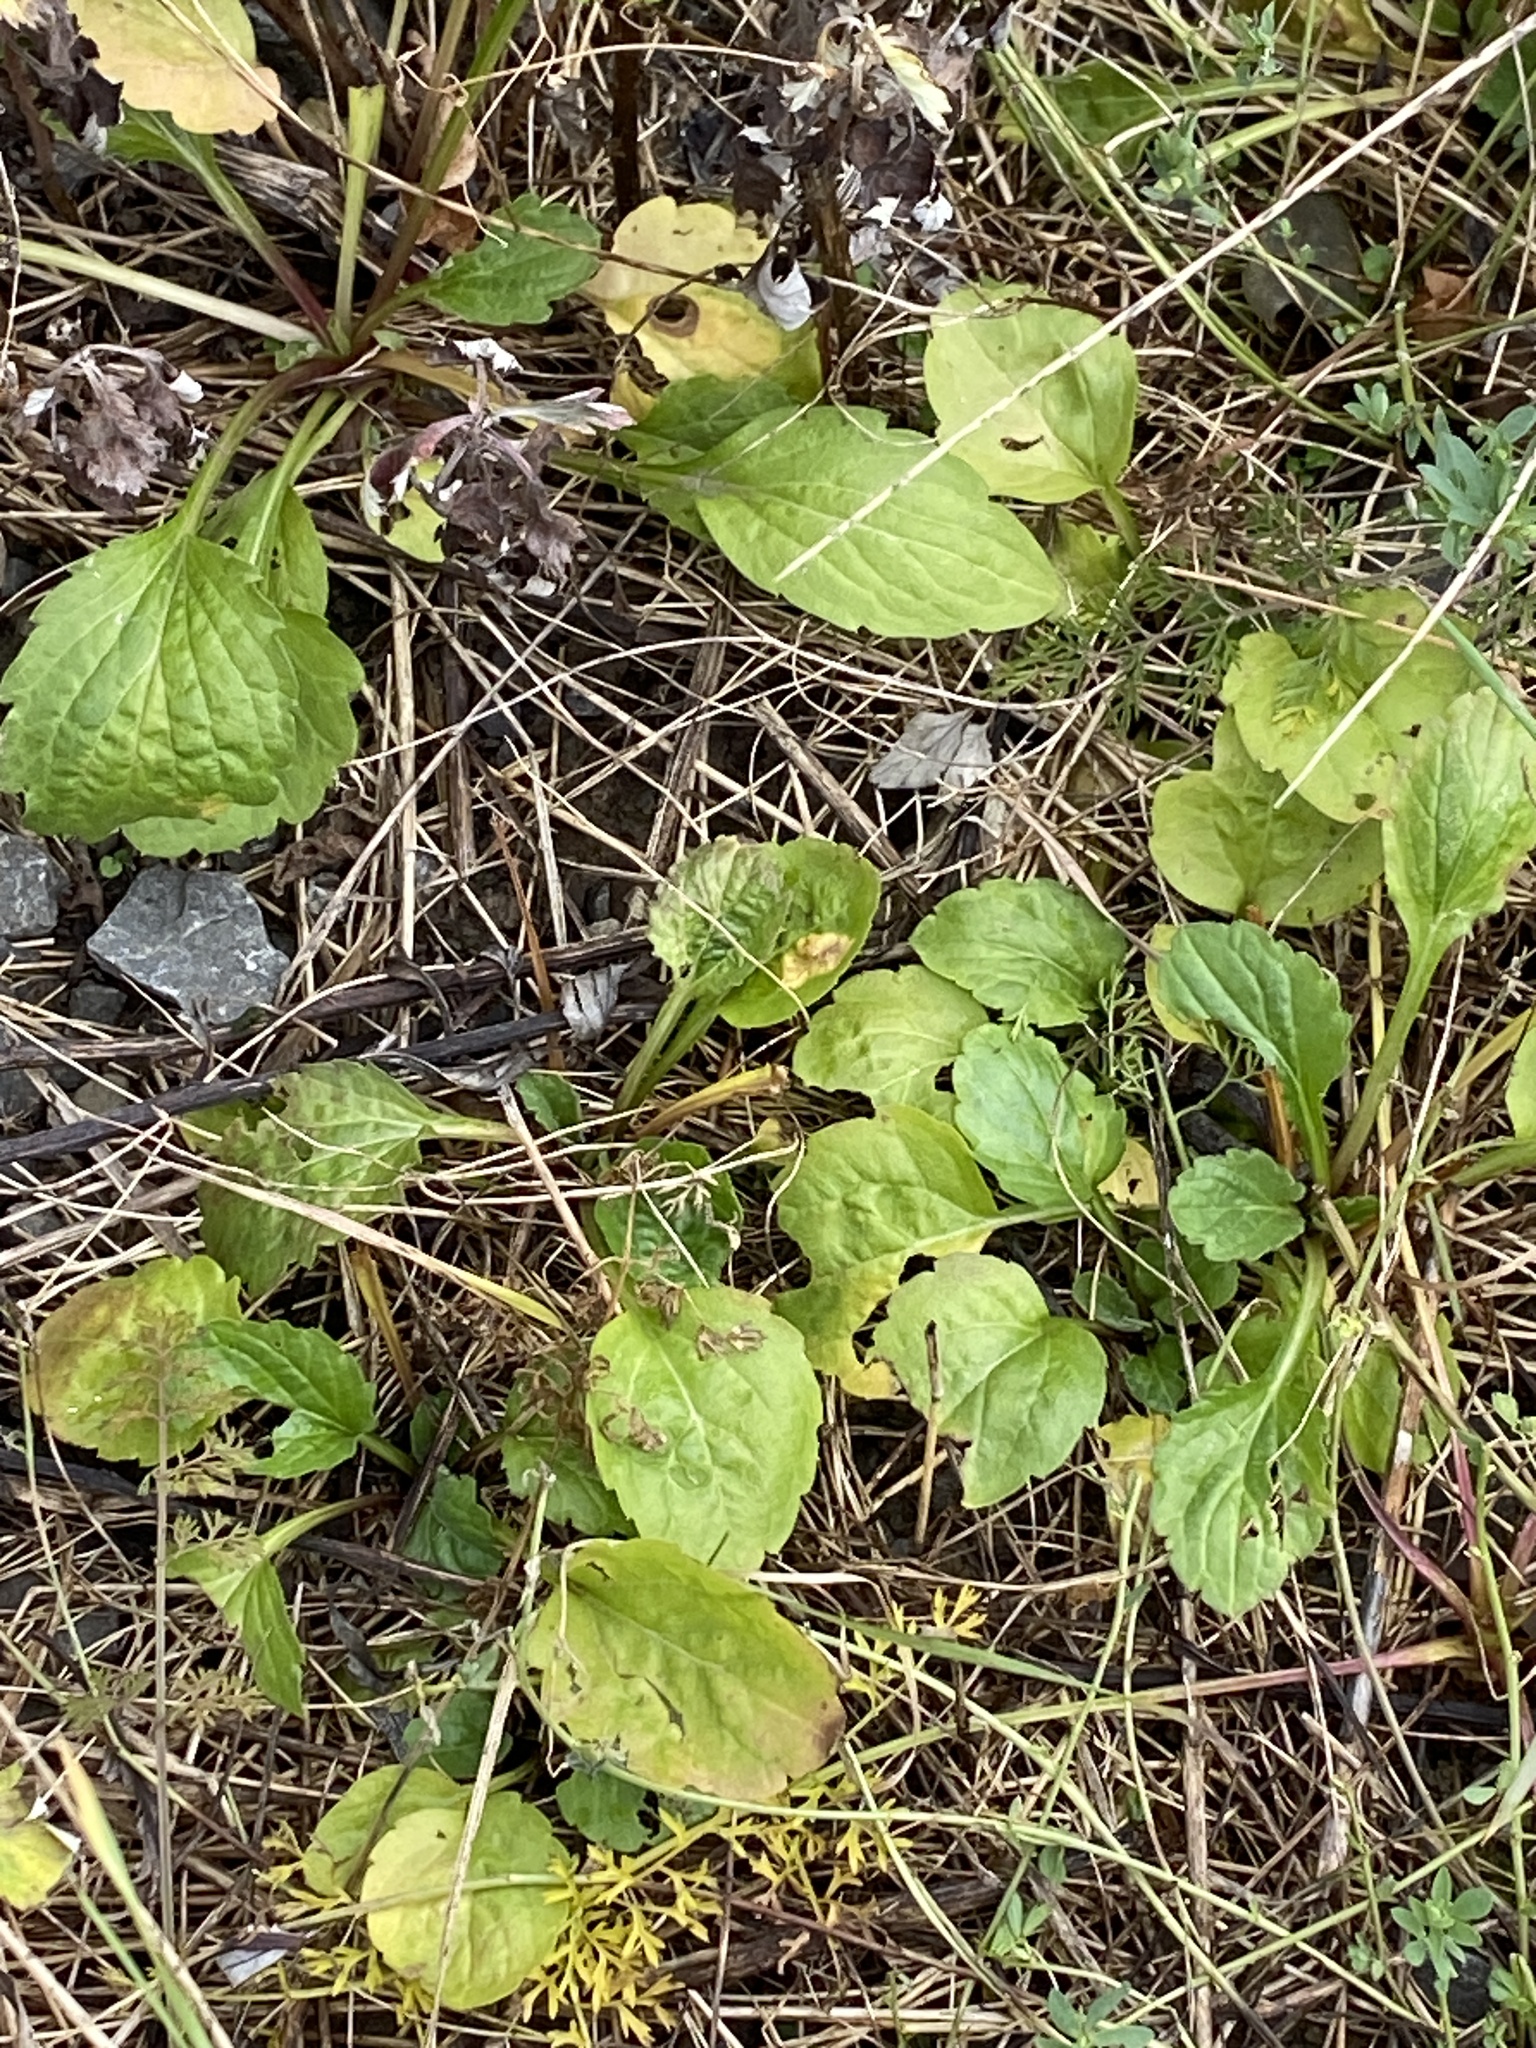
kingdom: Plantae
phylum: Tracheophyta
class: Magnoliopsida
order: Asterales
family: Asteraceae
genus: Erigeron
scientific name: Erigeron annuus
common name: Tall fleabane
